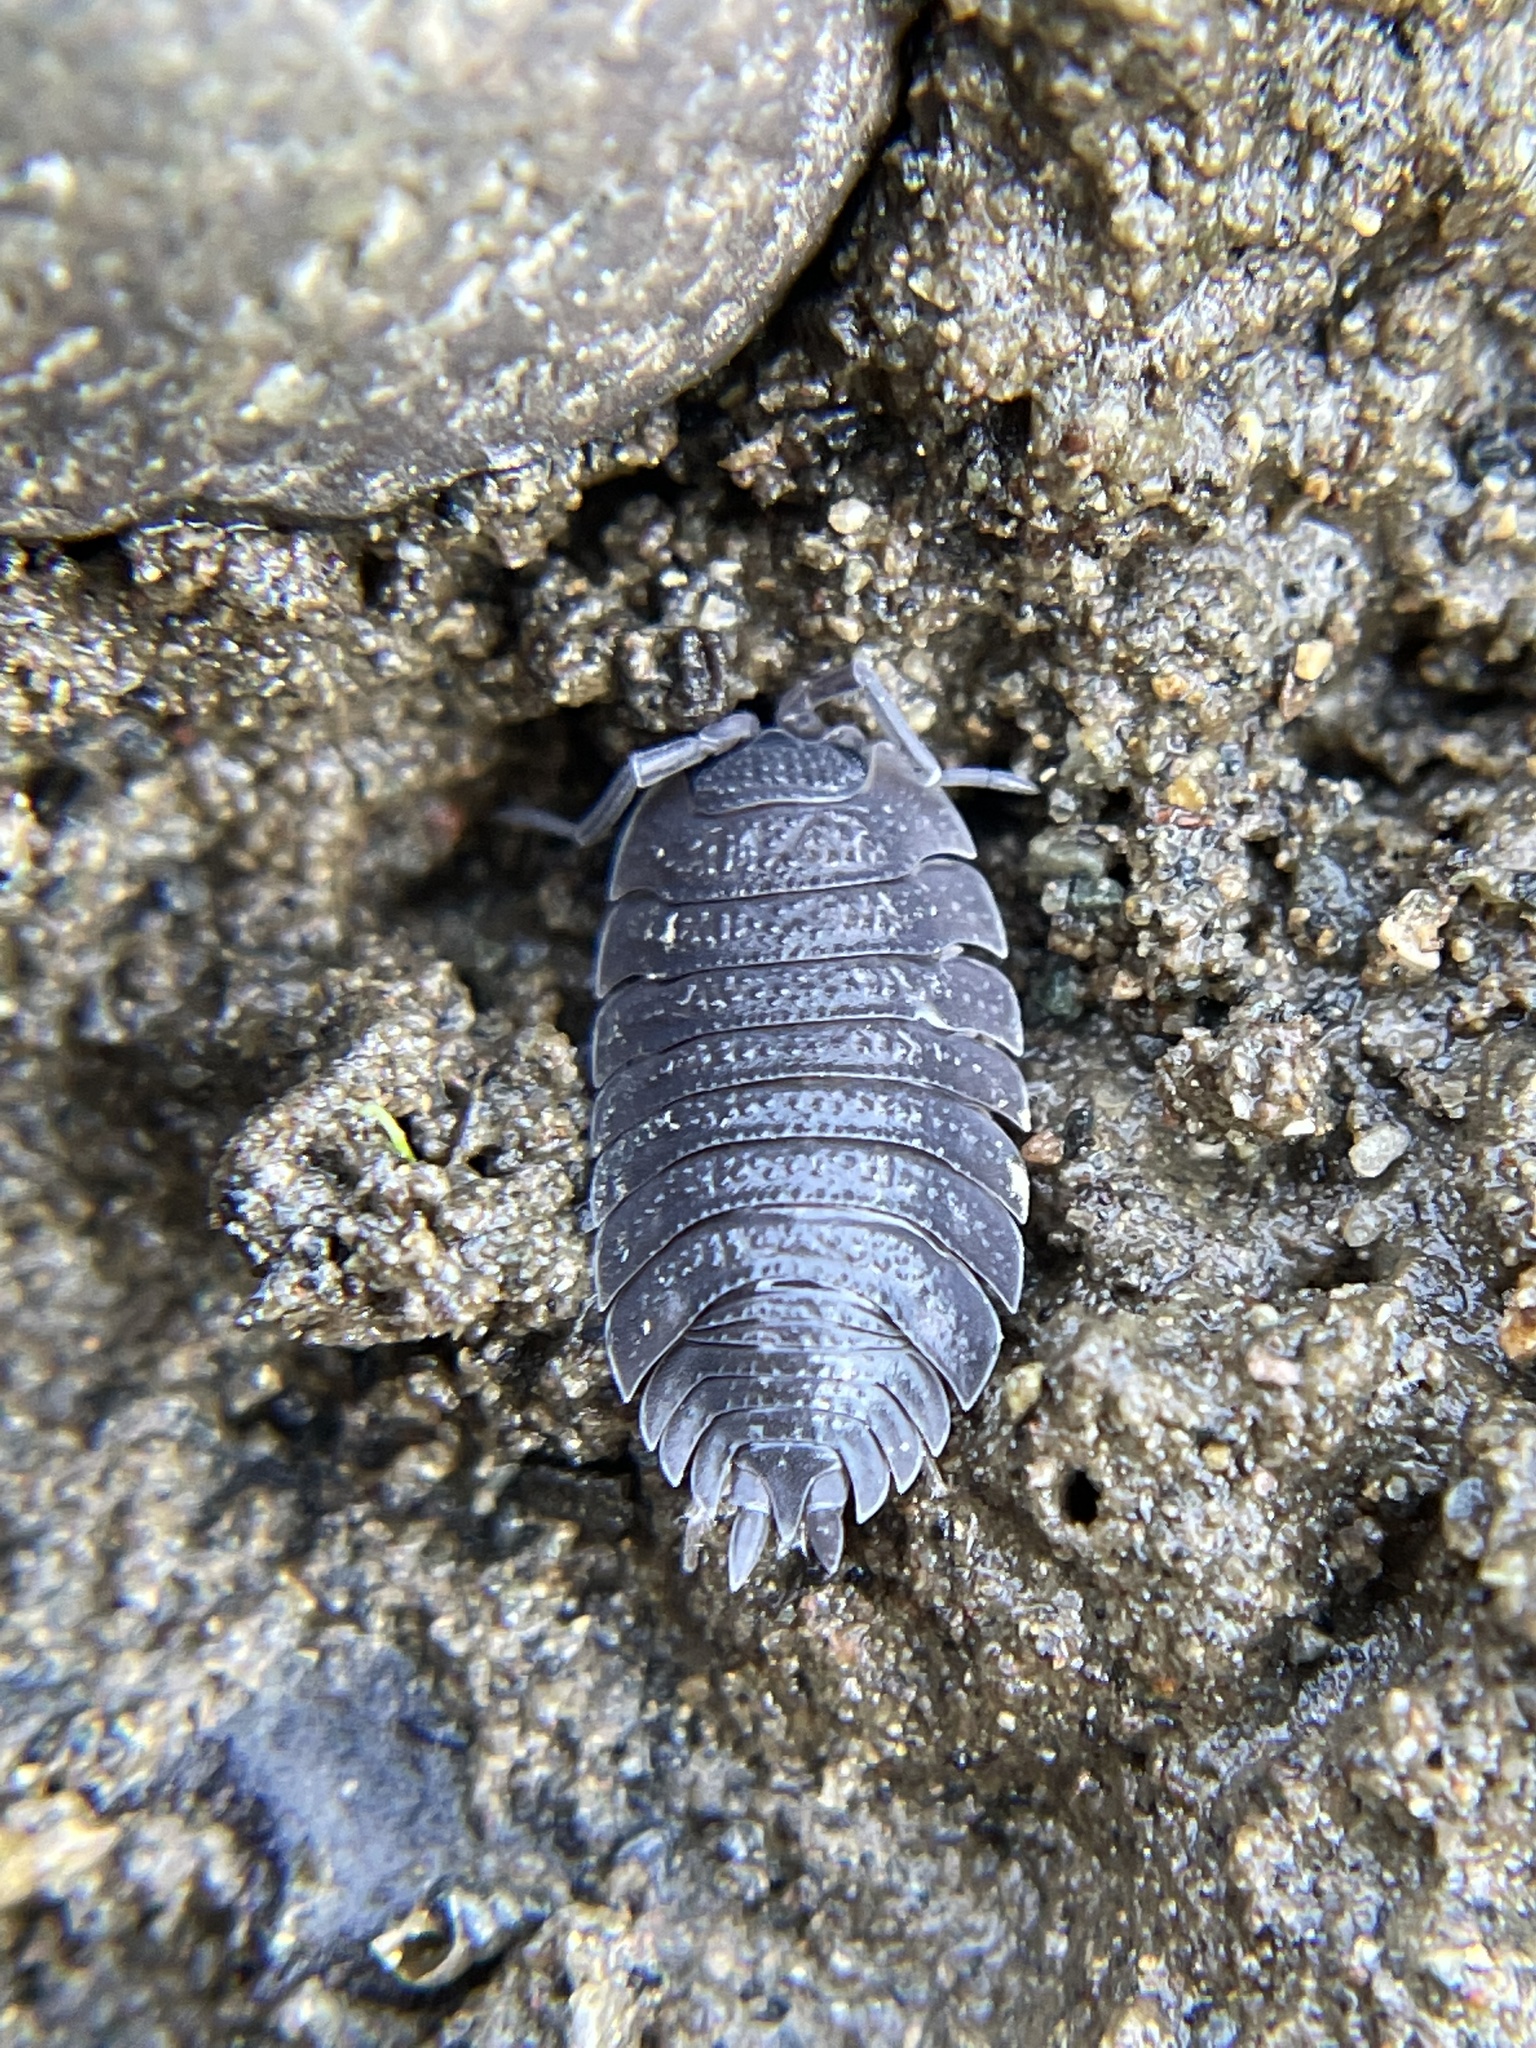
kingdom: Animalia
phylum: Arthropoda
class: Malacostraca
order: Isopoda
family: Porcellionidae
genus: Porcellio
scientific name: Porcellio scaber
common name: Common rough woodlouse
